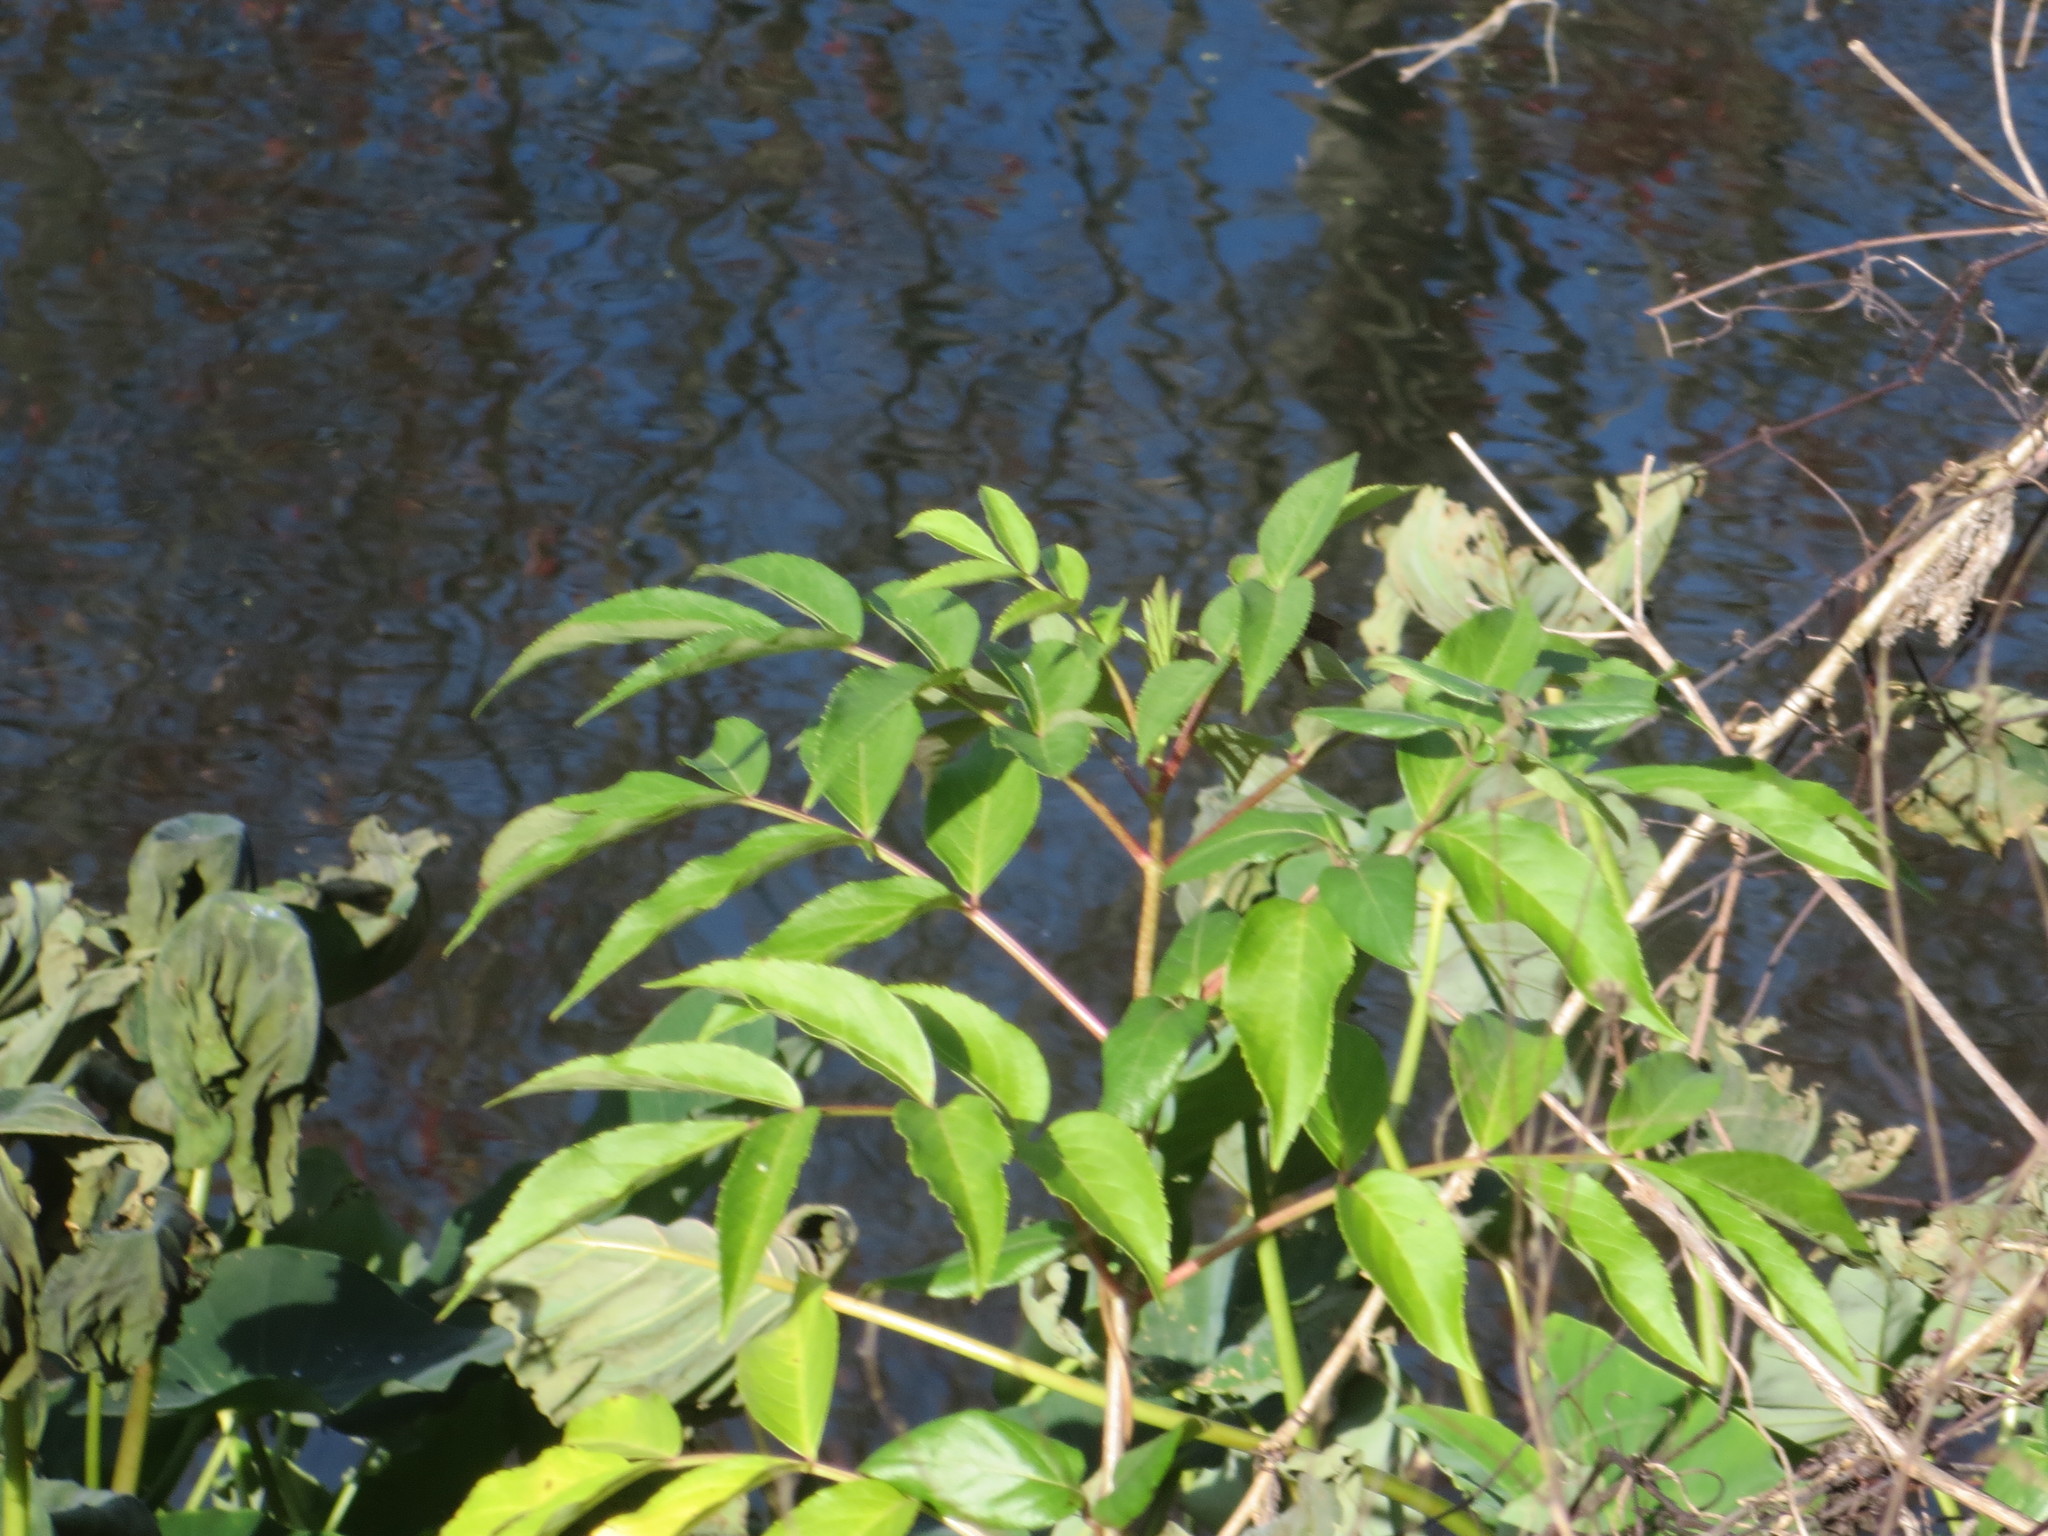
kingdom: Plantae
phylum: Tracheophyta
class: Magnoliopsida
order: Dipsacales
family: Viburnaceae
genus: Sambucus
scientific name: Sambucus canadensis
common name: American elder
